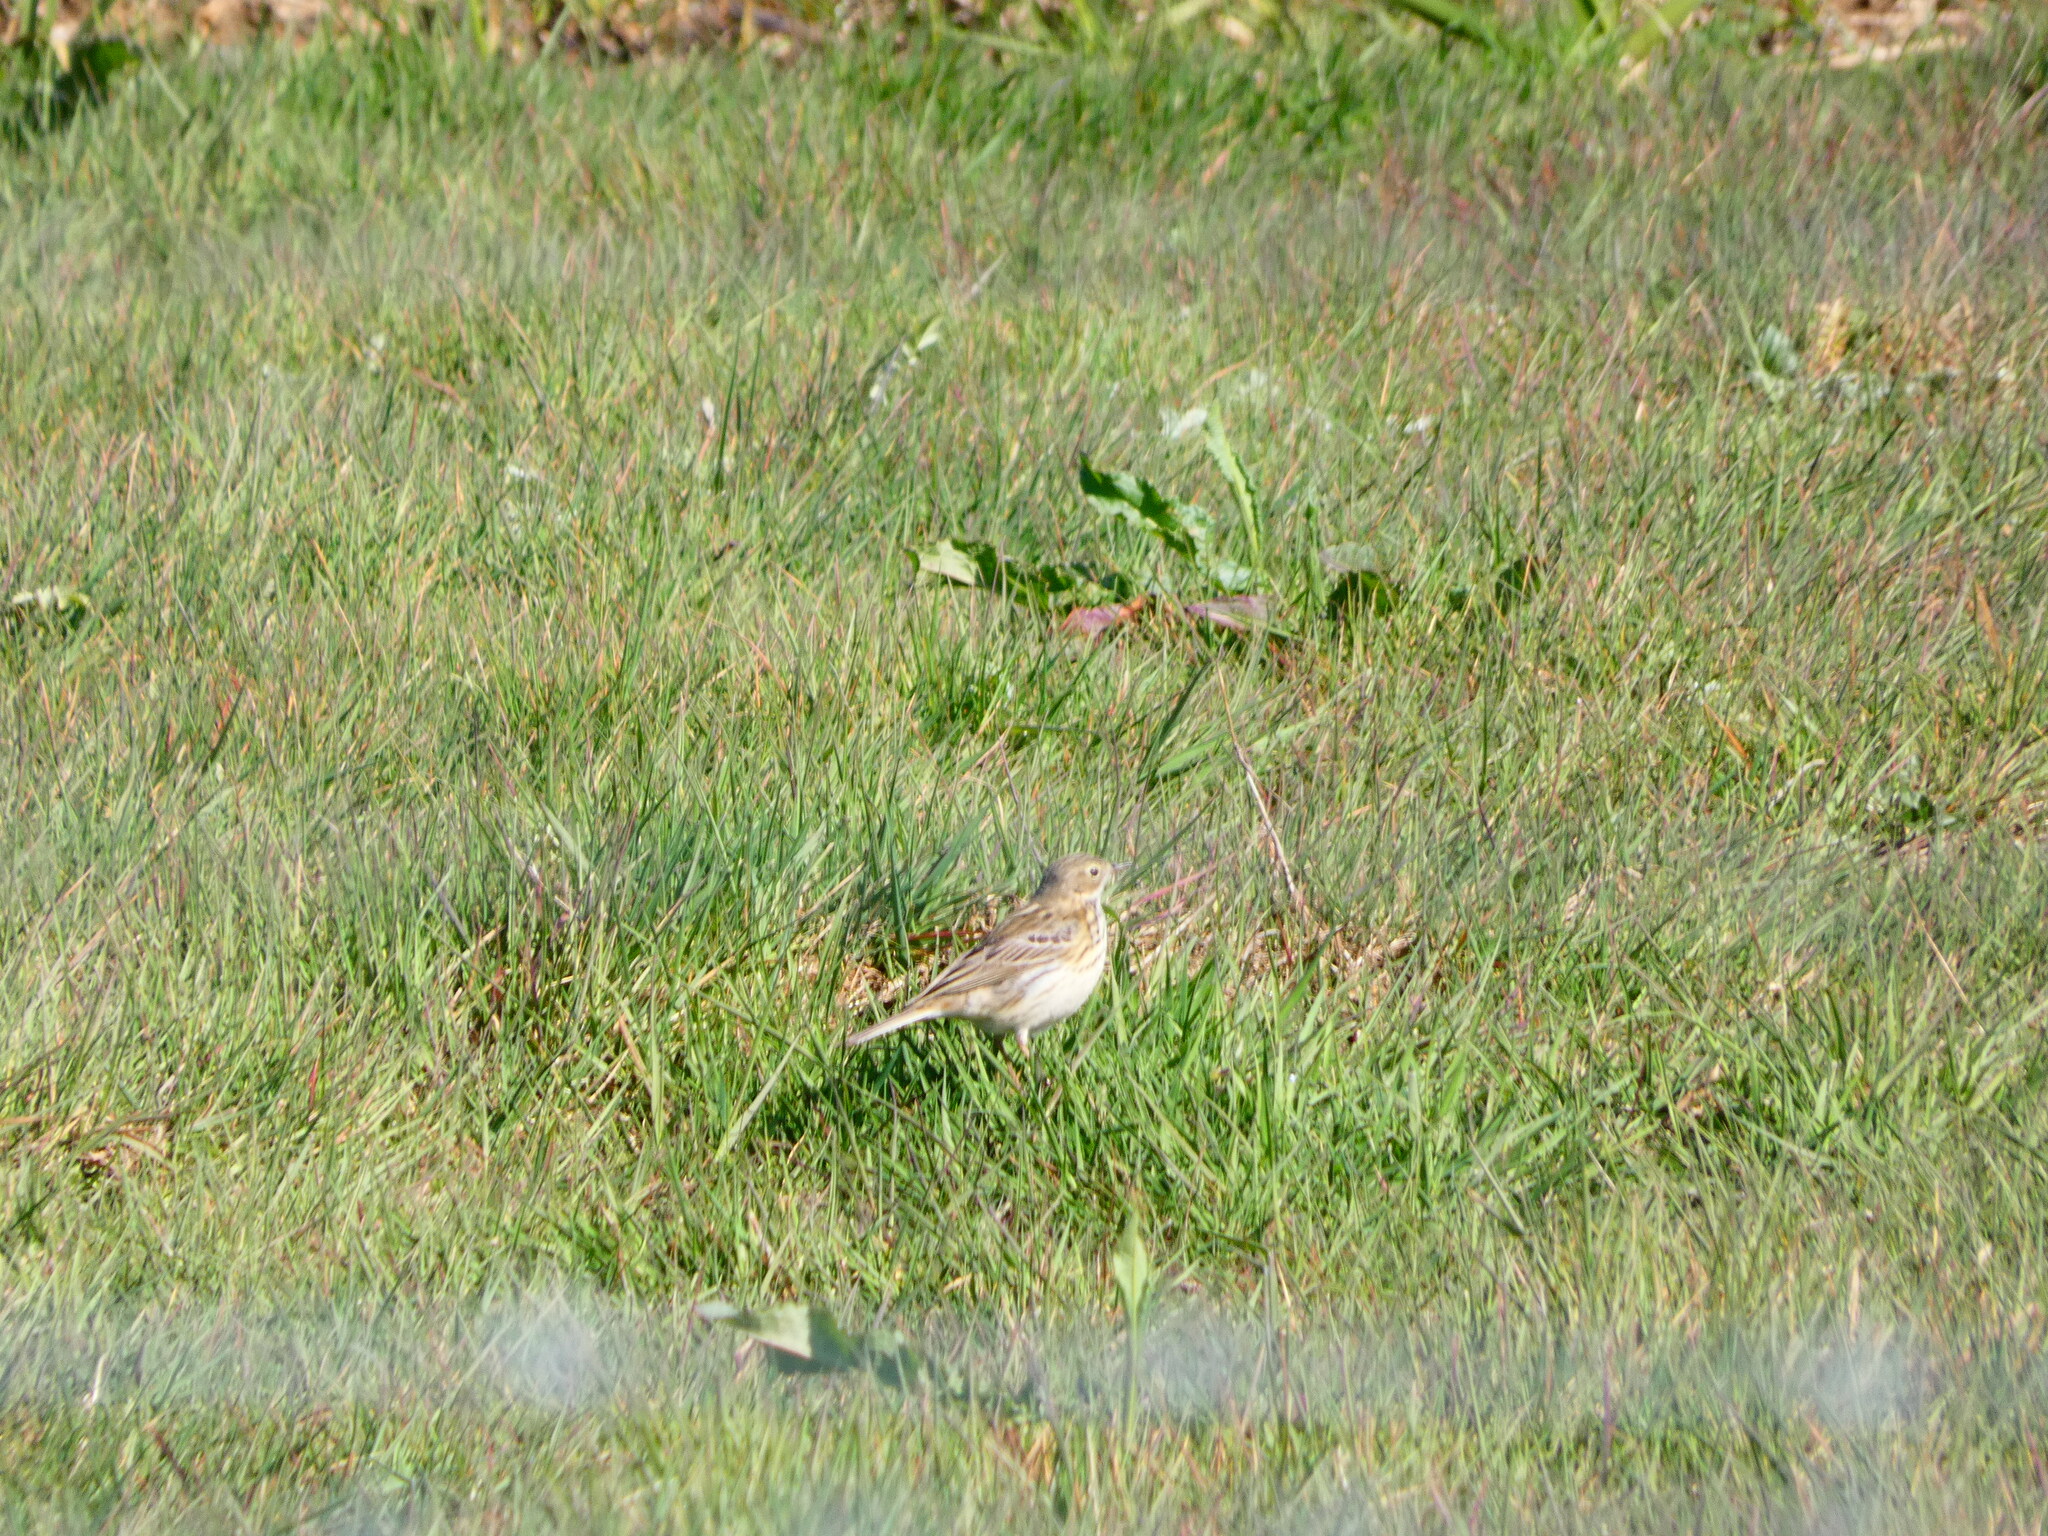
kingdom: Animalia
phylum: Chordata
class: Aves
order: Passeriformes
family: Alaudidae
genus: Alauda
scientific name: Alauda arvensis
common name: Eurasian skylark
